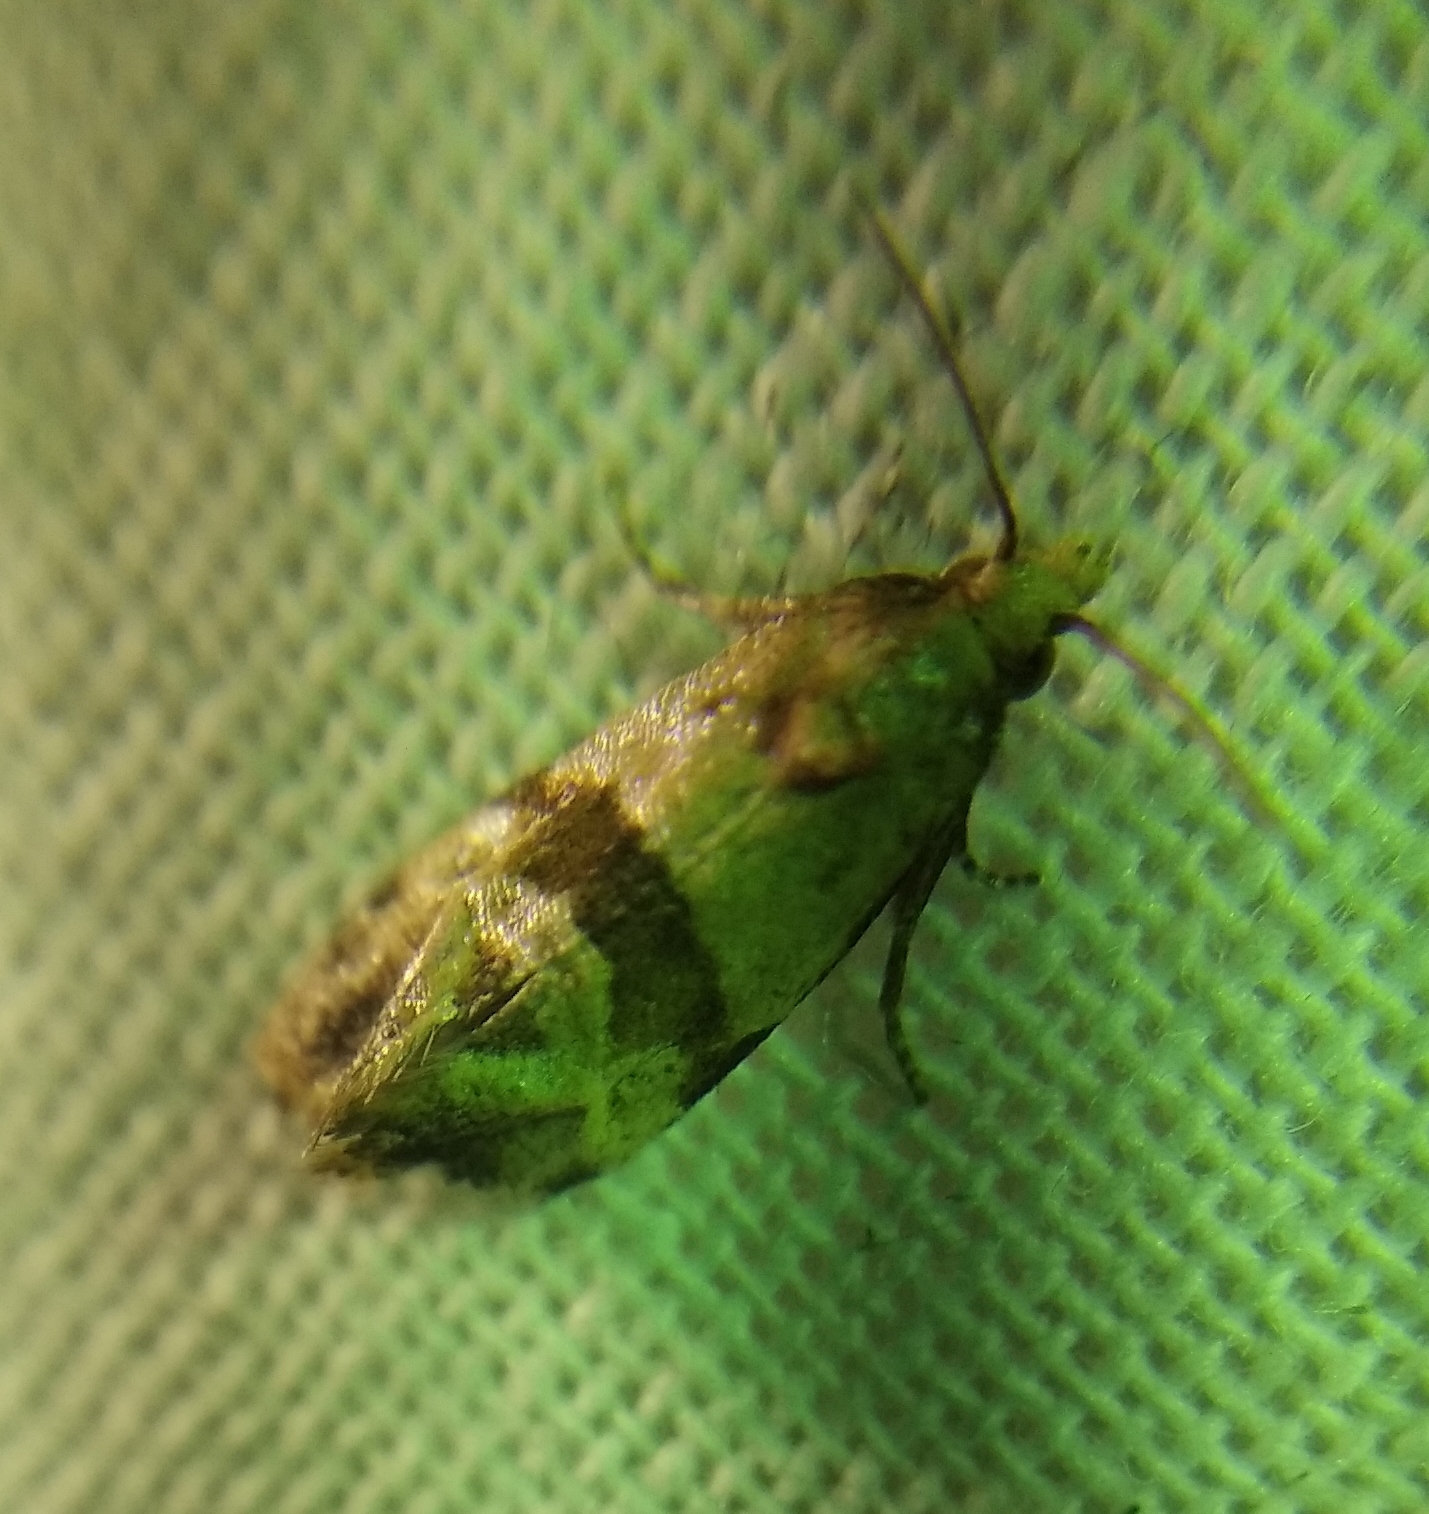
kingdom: Animalia
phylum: Arthropoda
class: Insecta
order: Lepidoptera
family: Tortricidae
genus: Phalonidia
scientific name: Phalonidia contractana
